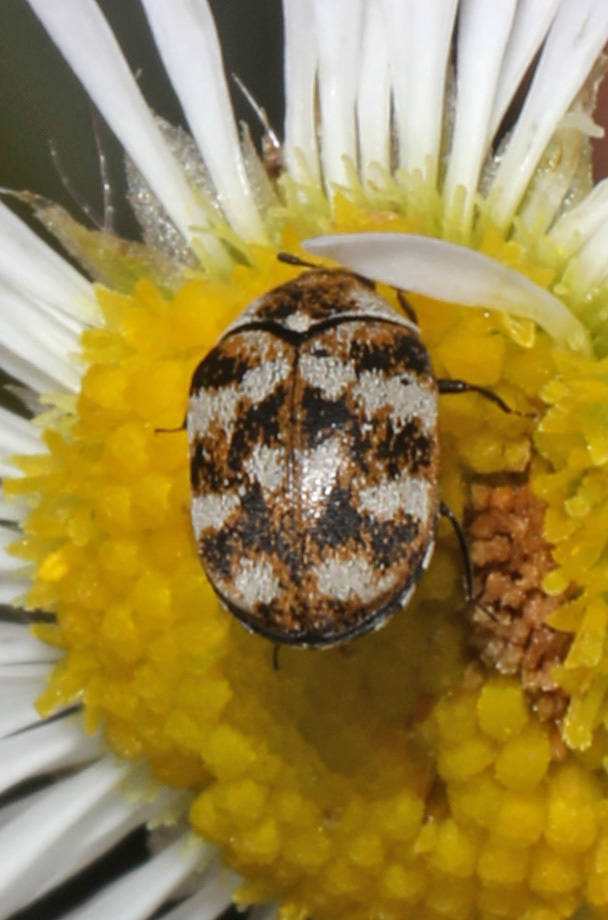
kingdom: Animalia
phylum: Arthropoda
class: Insecta
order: Coleoptera
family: Dermestidae
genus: Anthrenus
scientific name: Anthrenus verbasci
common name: Varied carpet beetle
